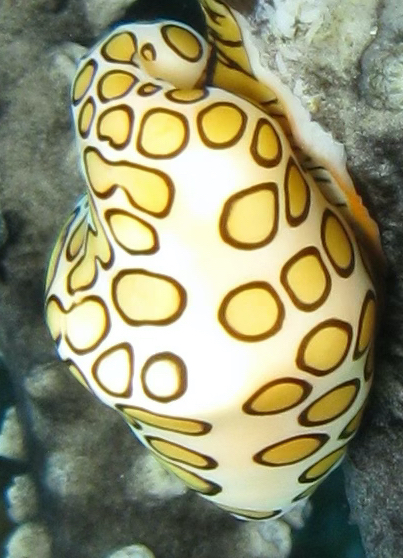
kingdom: Animalia
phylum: Mollusca
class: Gastropoda
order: Littorinimorpha
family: Ovulidae
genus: Cyphoma
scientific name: Cyphoma gibbosum
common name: Flamingo tongue
